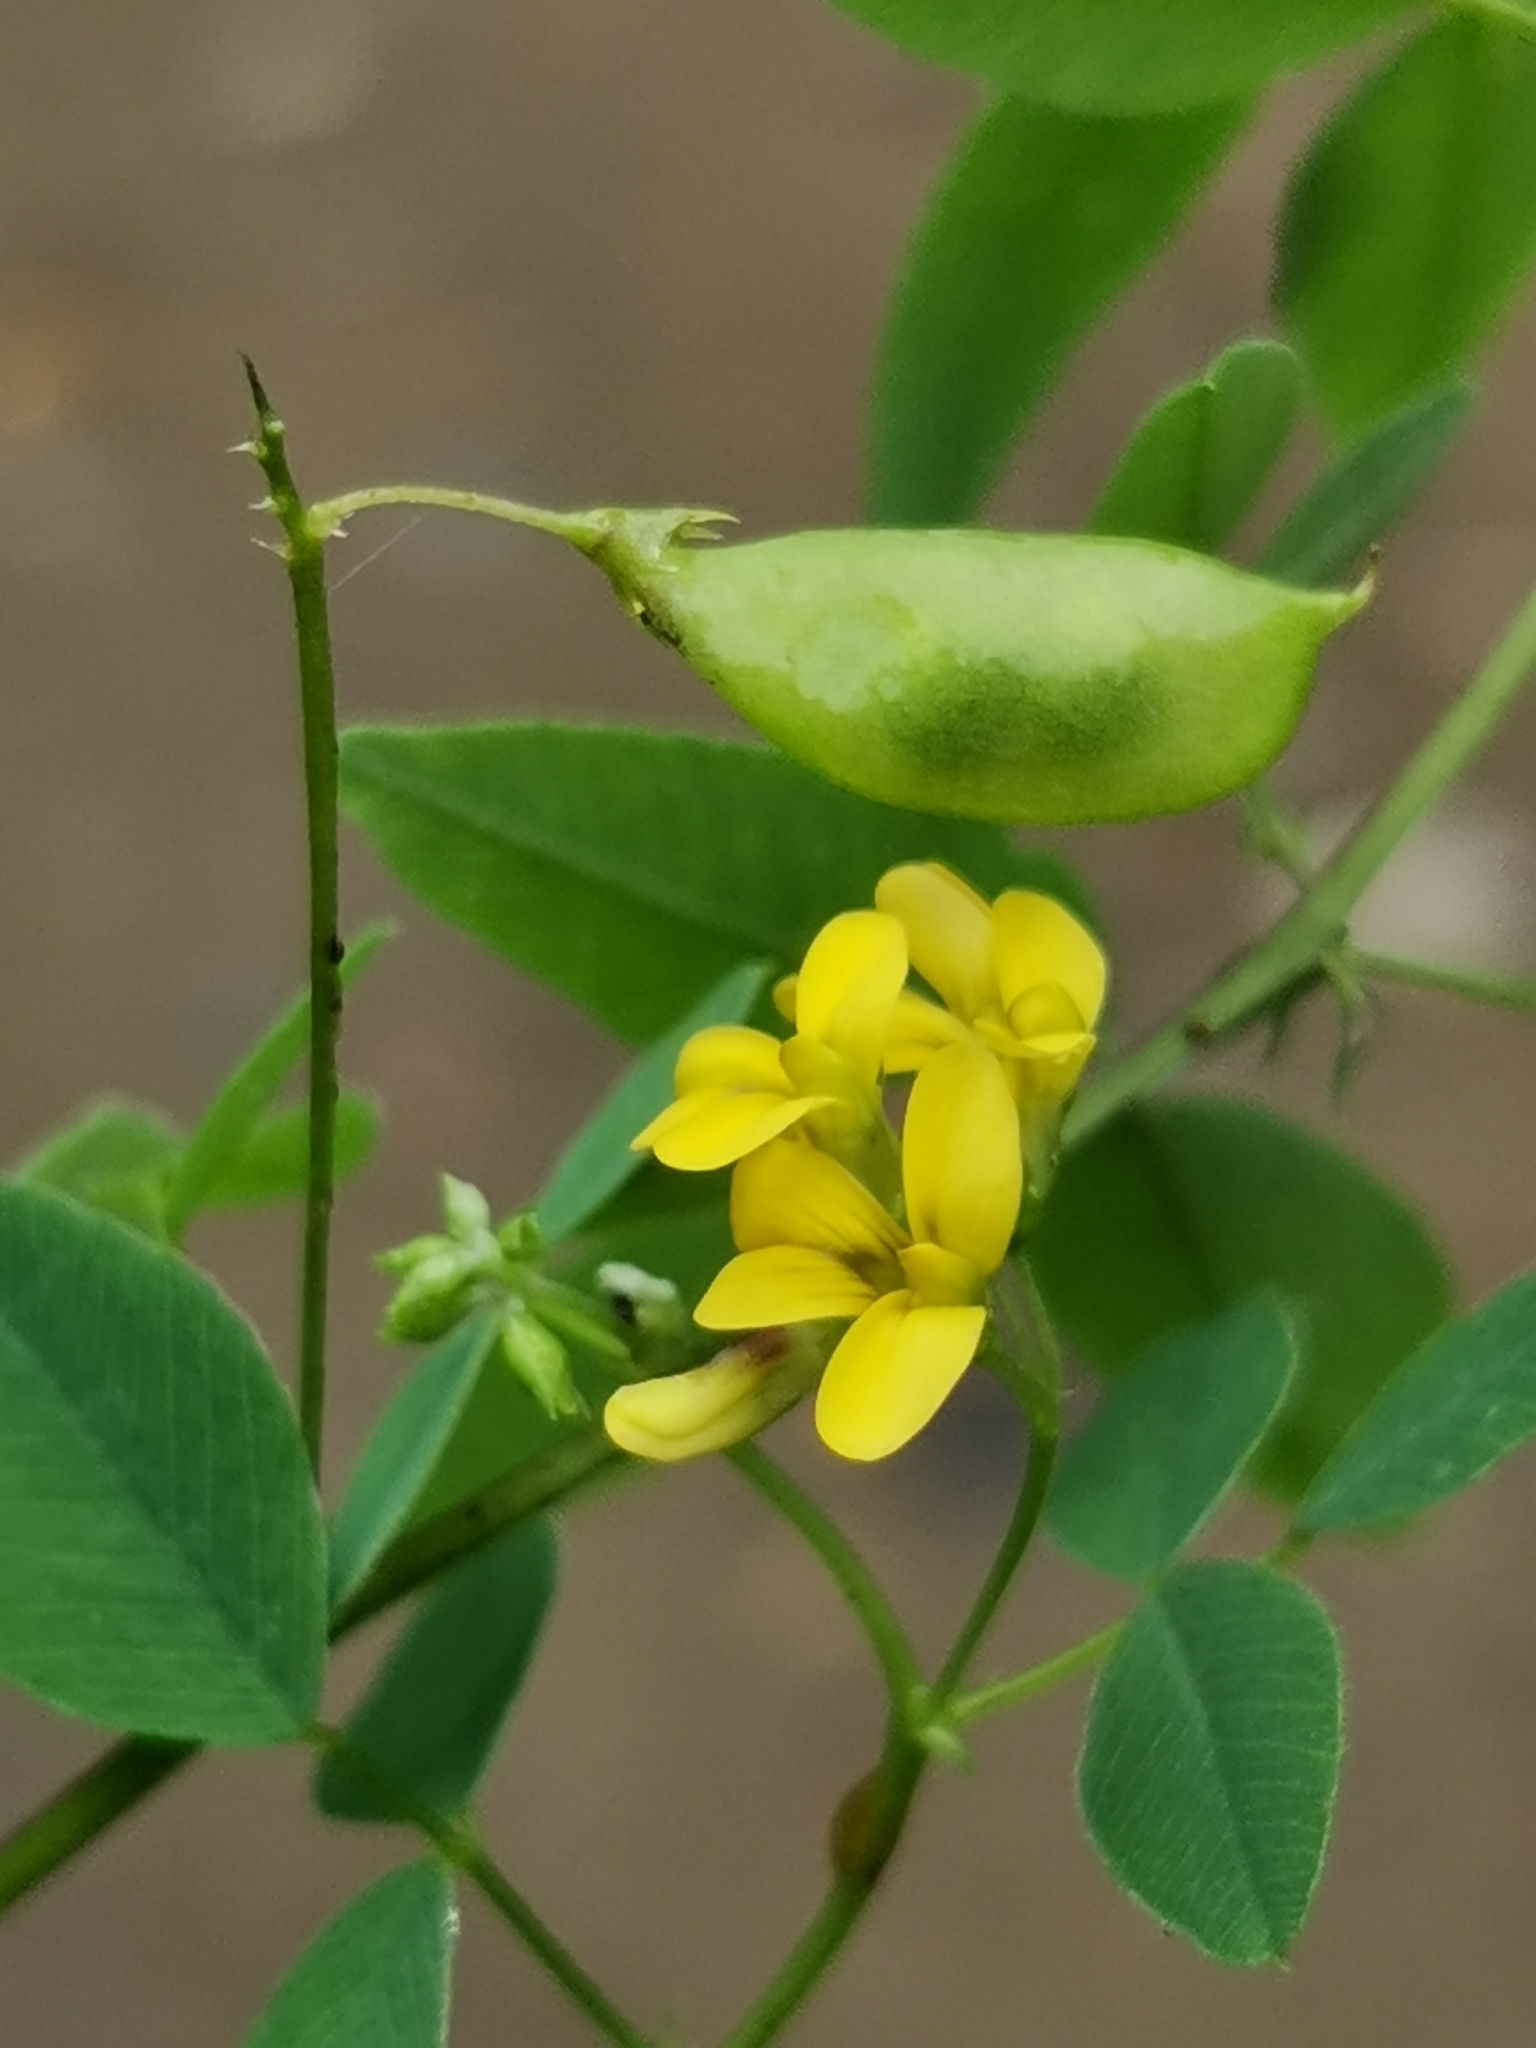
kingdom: Plantae
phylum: Tracheophyta
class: Magnoliopsida
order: Fabales
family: Fabaceae
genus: Medicago
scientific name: Medicago ruthenica
